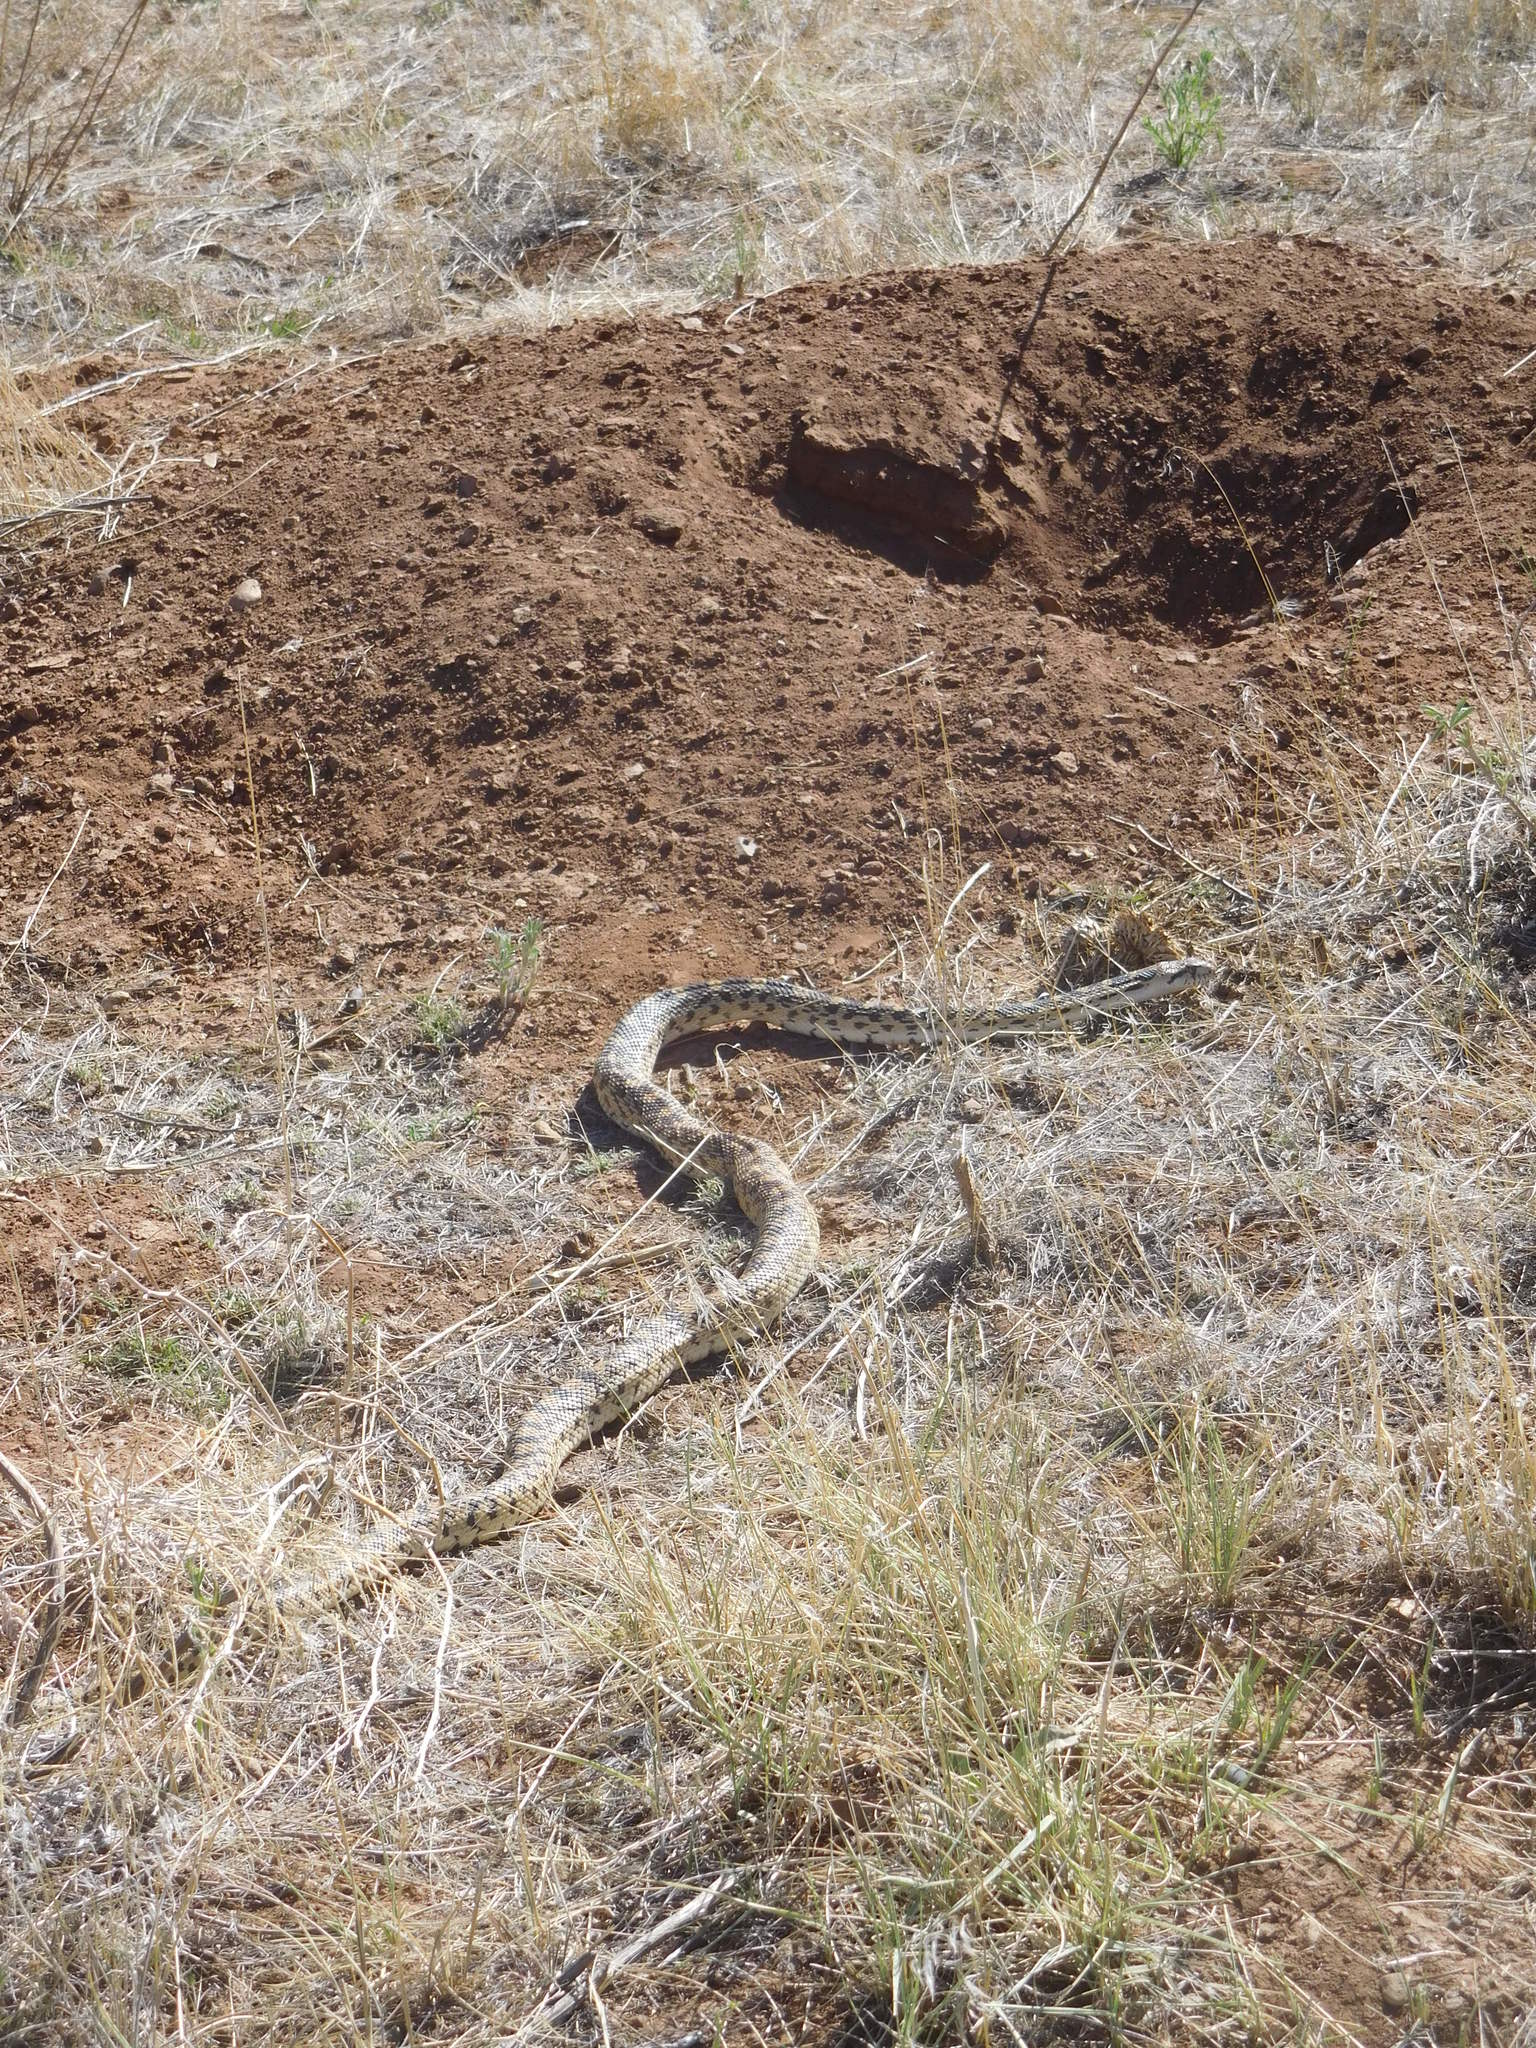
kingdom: Animalia
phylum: Chordata
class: Squamata
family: Colubridae
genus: Pituophis
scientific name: Pituophis catenifer
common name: Gopher snake
